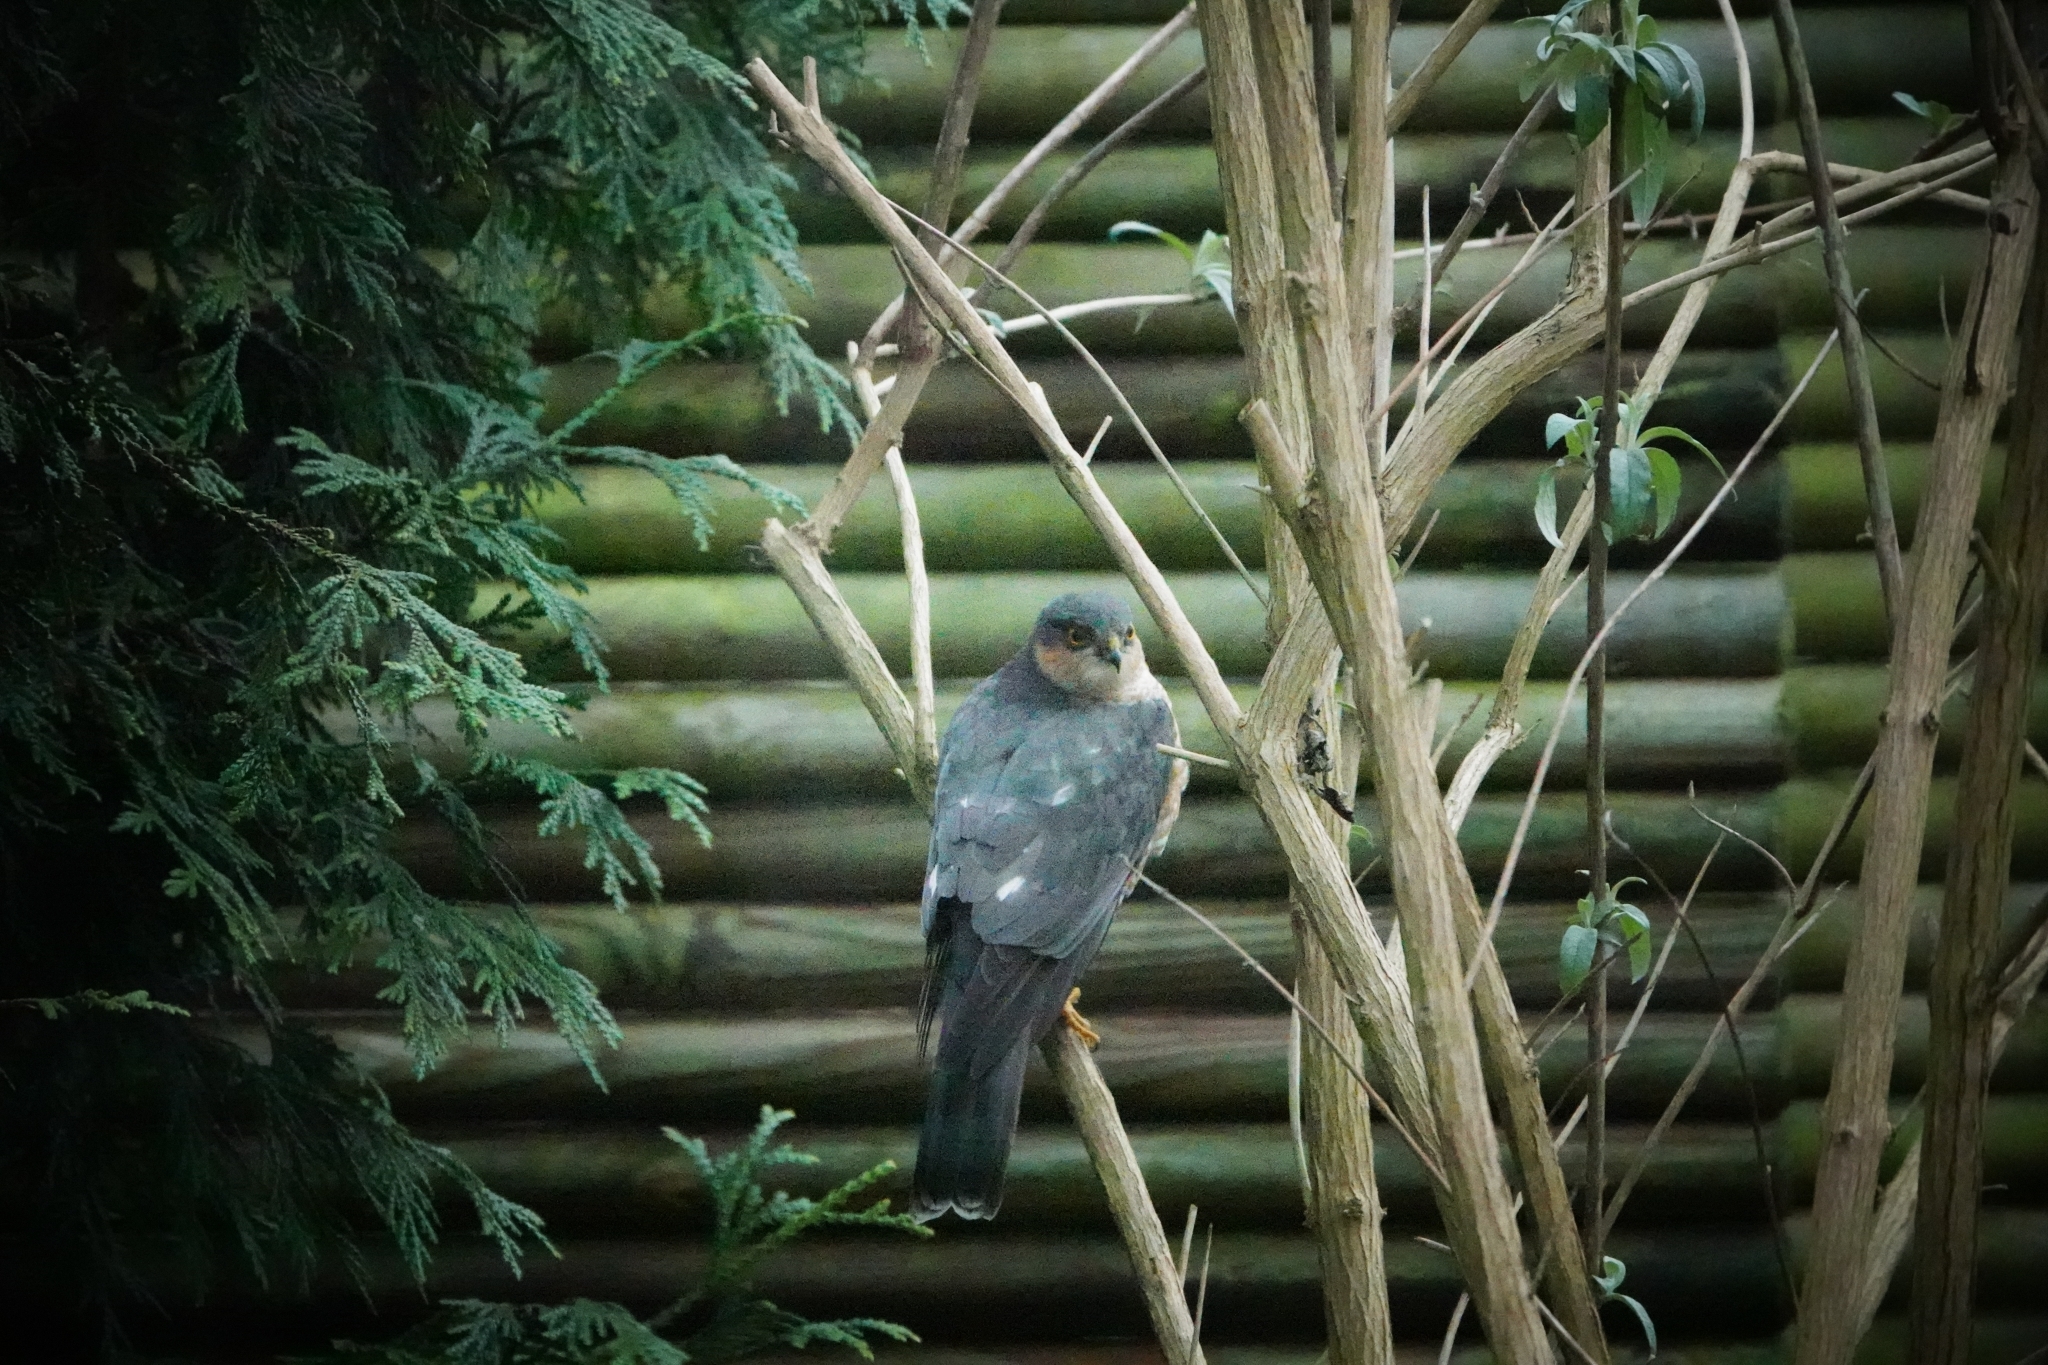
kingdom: Animalia
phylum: Chordata
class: Aves
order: Accipitriformes
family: Accipitridae
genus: Accipiter
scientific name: Accipiter nisus
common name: Eurasian sparrowhawk
